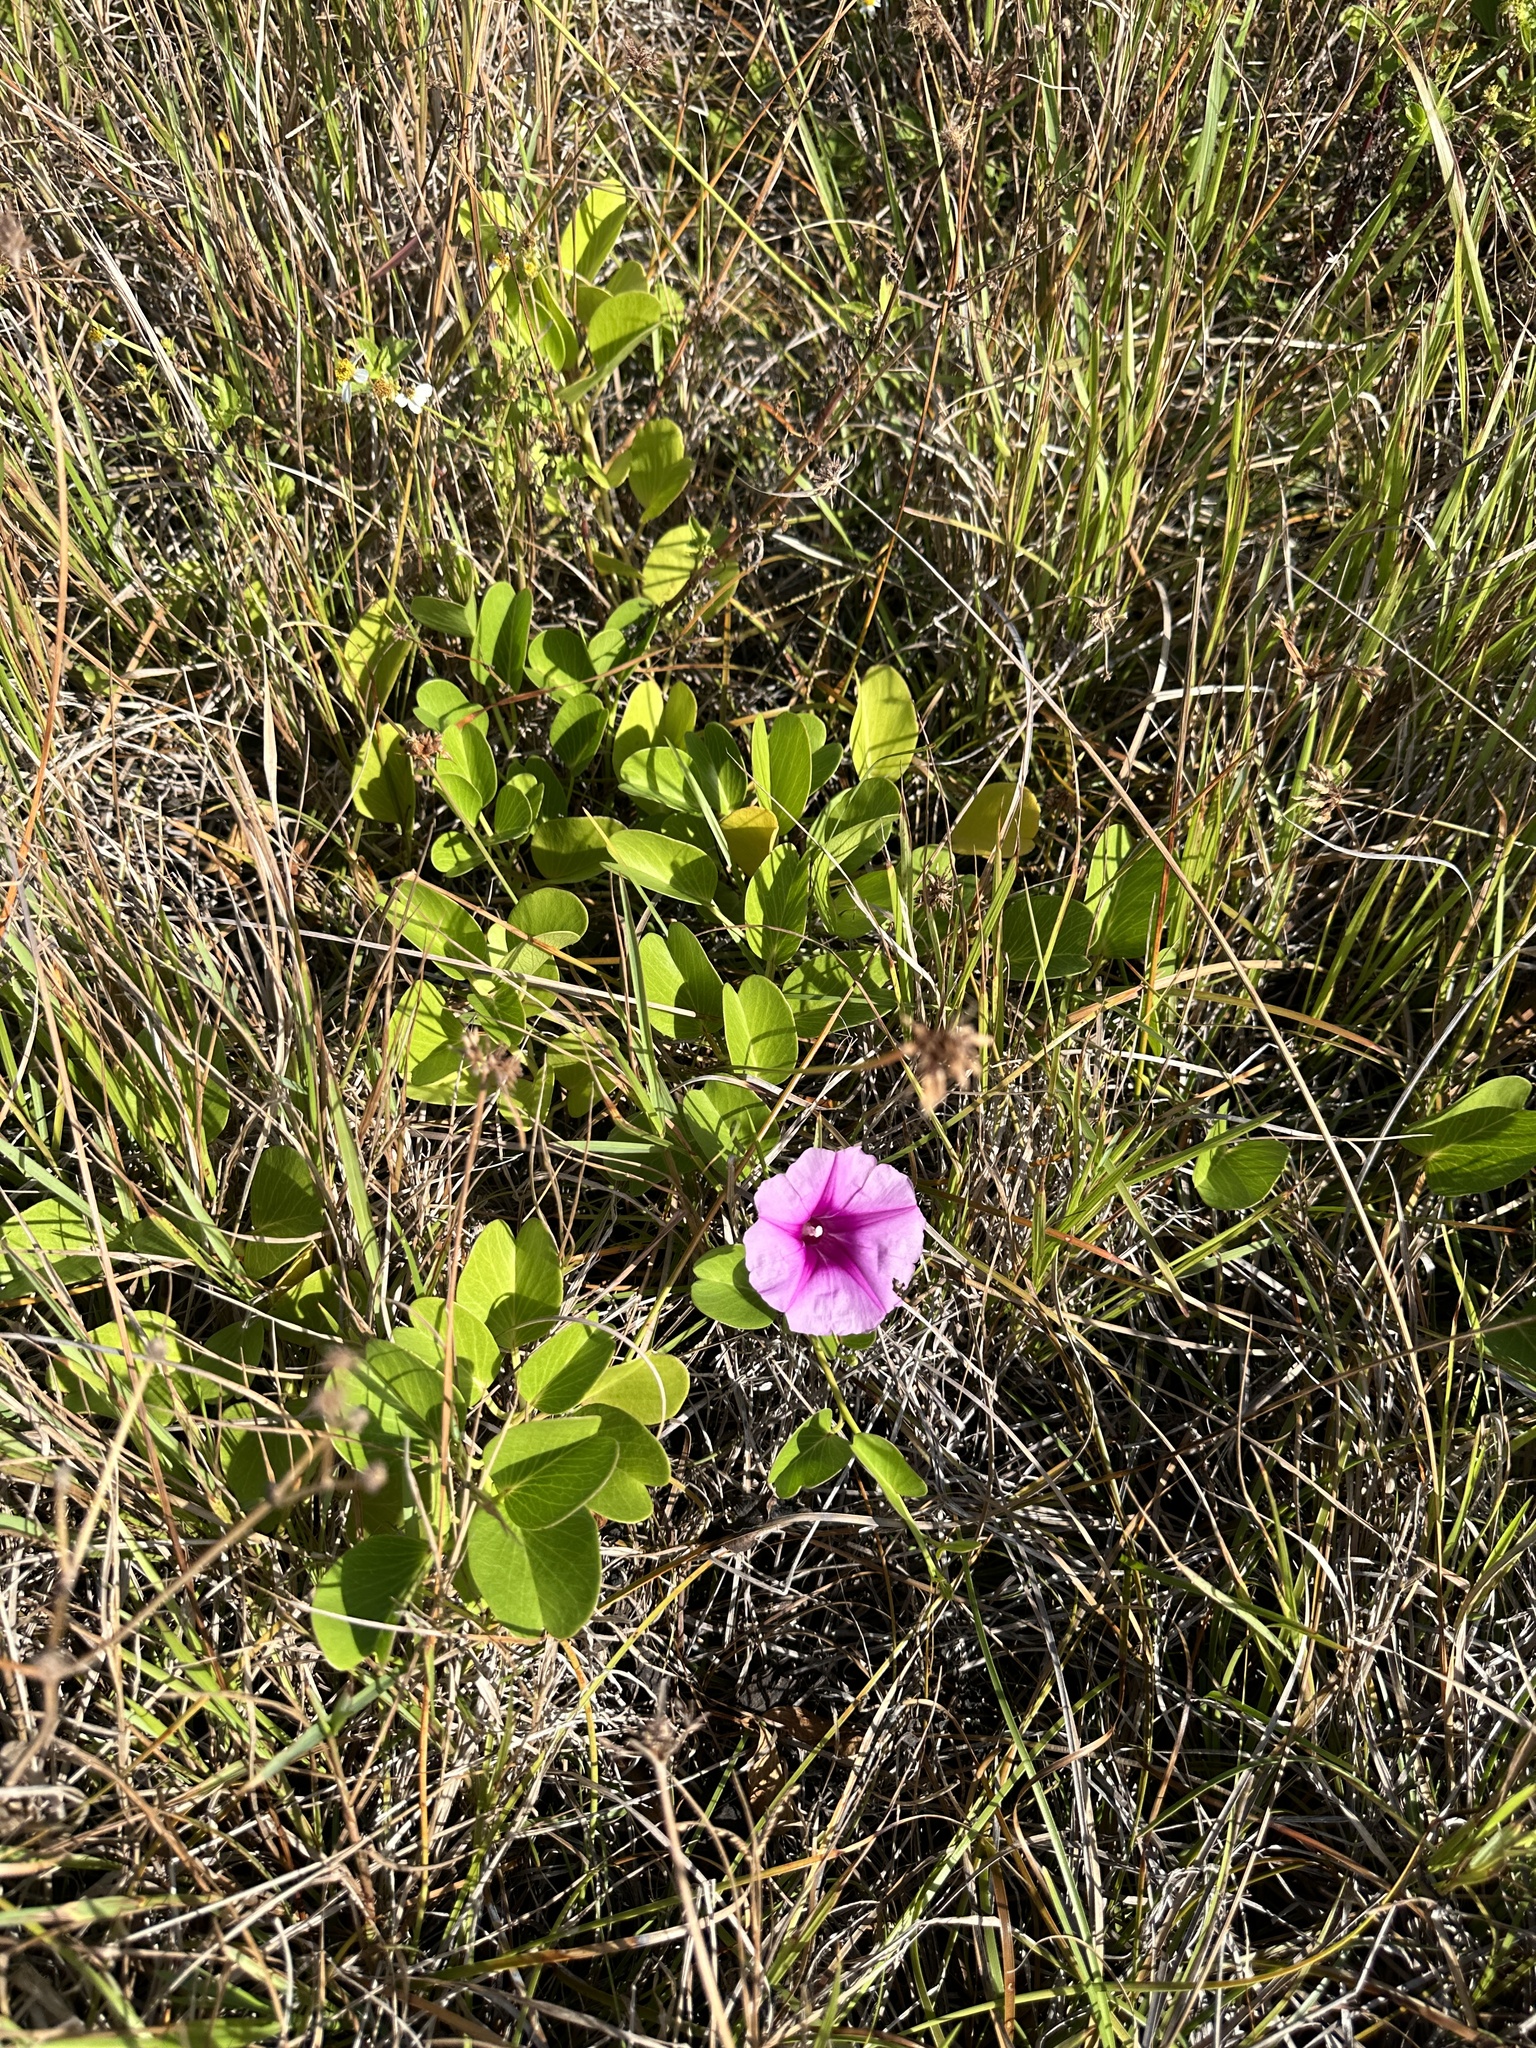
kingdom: Plantae
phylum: Tracheophyta
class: Magnoliopsida
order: Solanales
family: Convolvulaceae
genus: Ipomoea
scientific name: Ipomoea pes-caprae
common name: Beach morning glory
